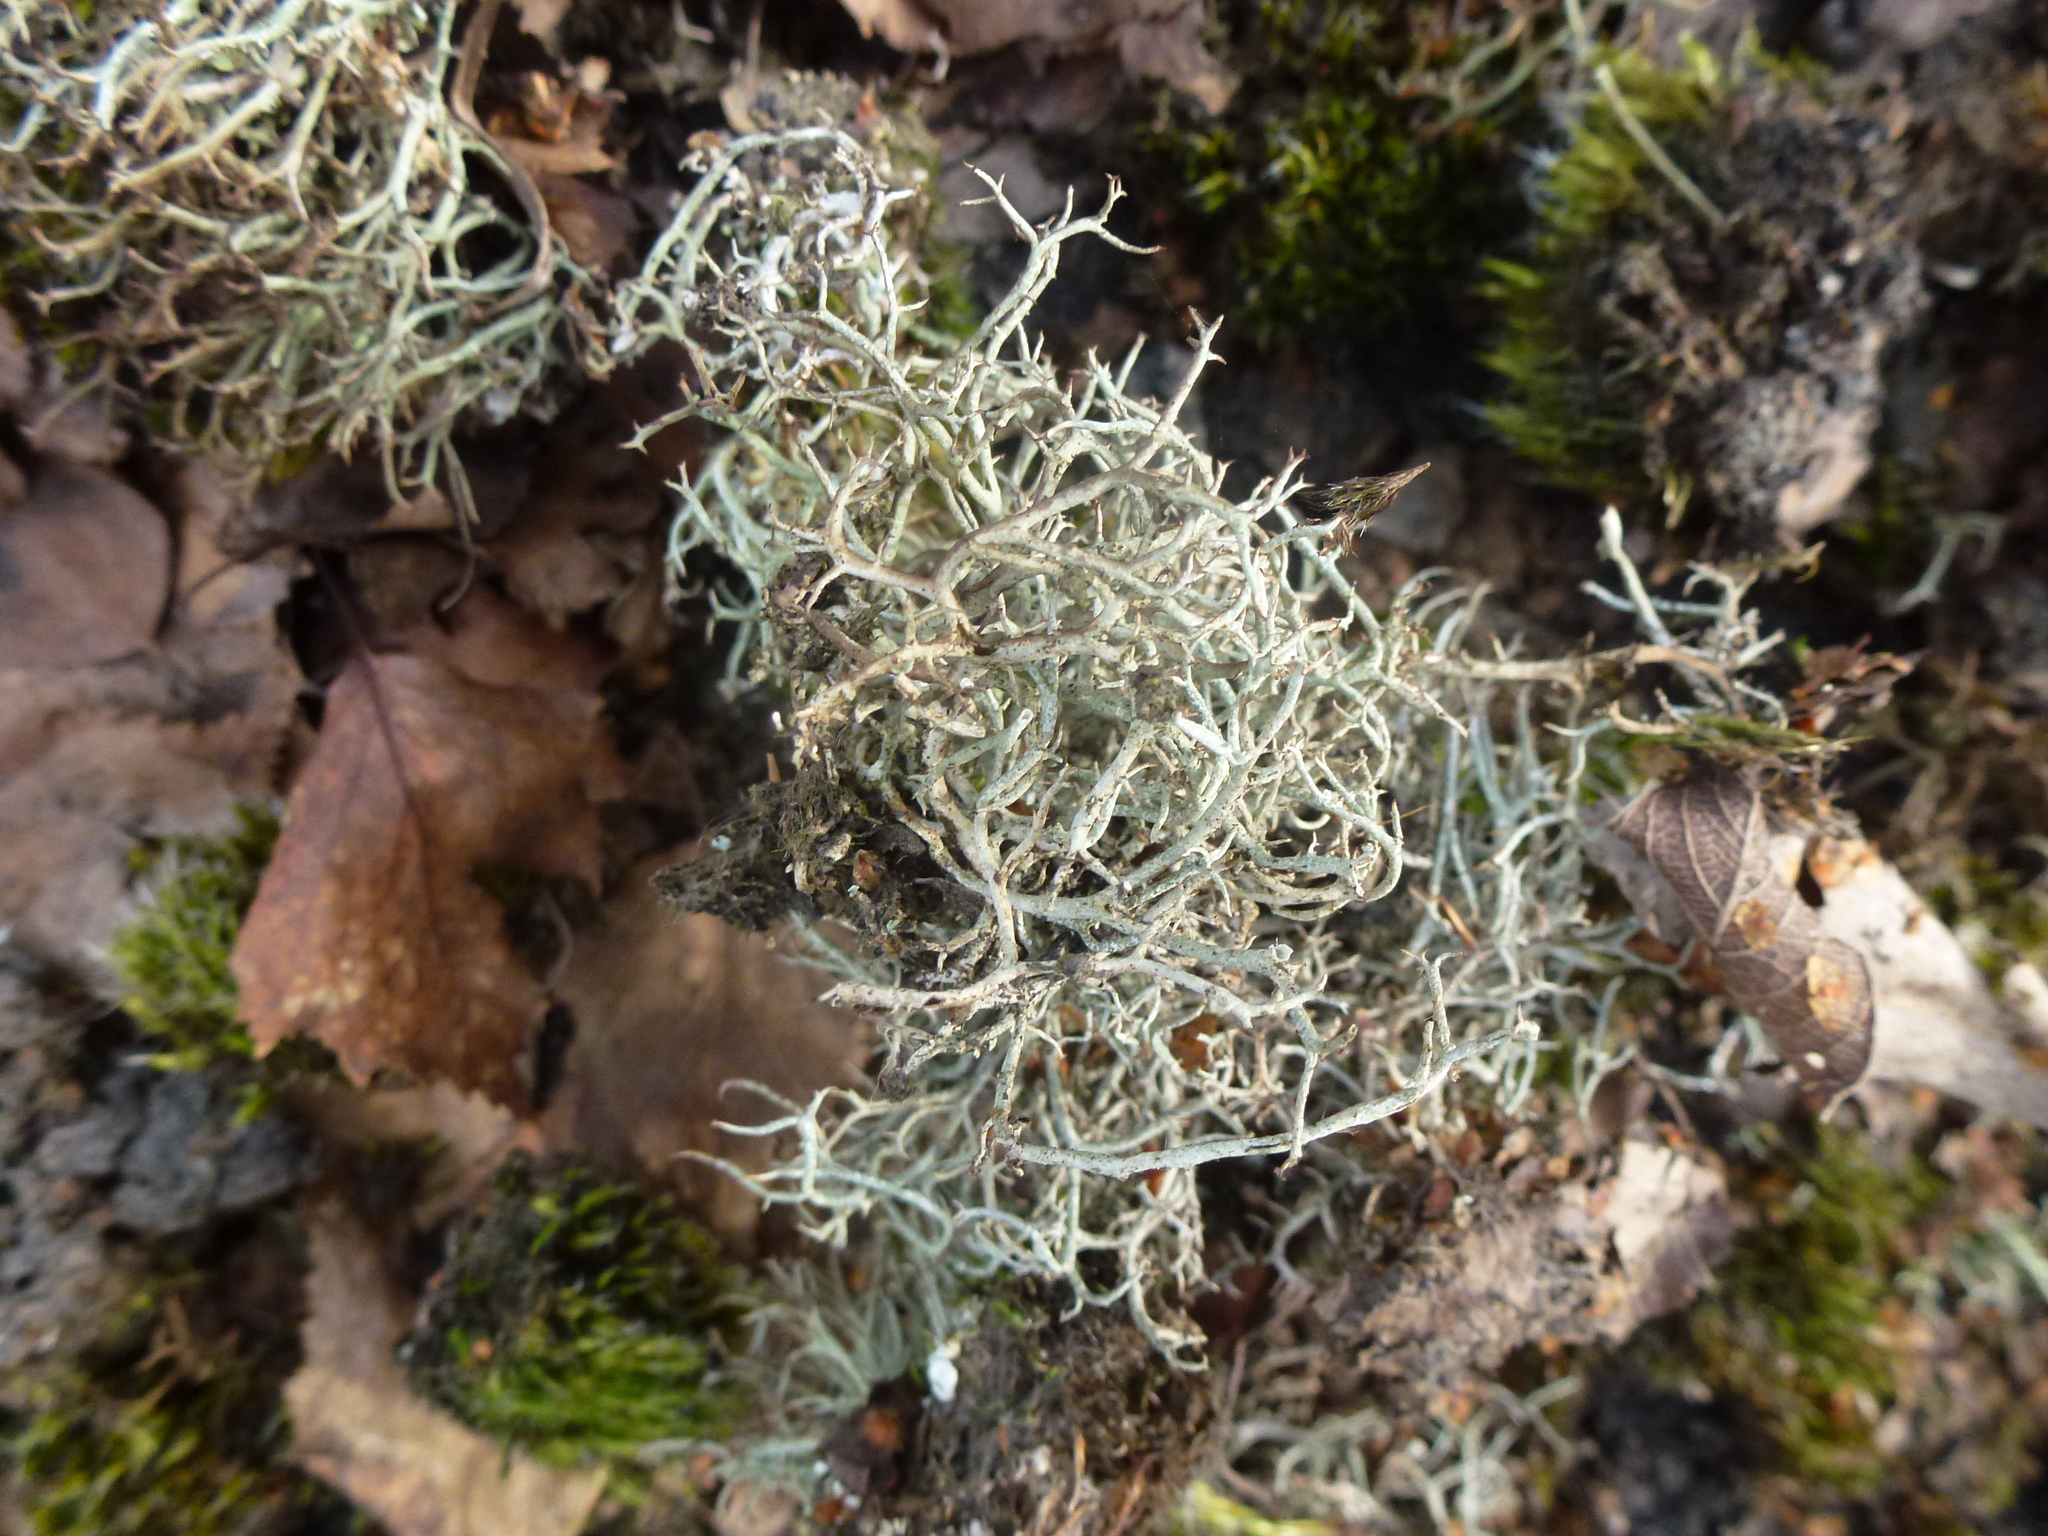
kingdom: Fungi
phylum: Ascomycota
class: Lecanoromycetes
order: Lecanorales
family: Cladoniaceae
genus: Cladonia
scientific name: Cladonia furcata
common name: Many-forked cladonia
